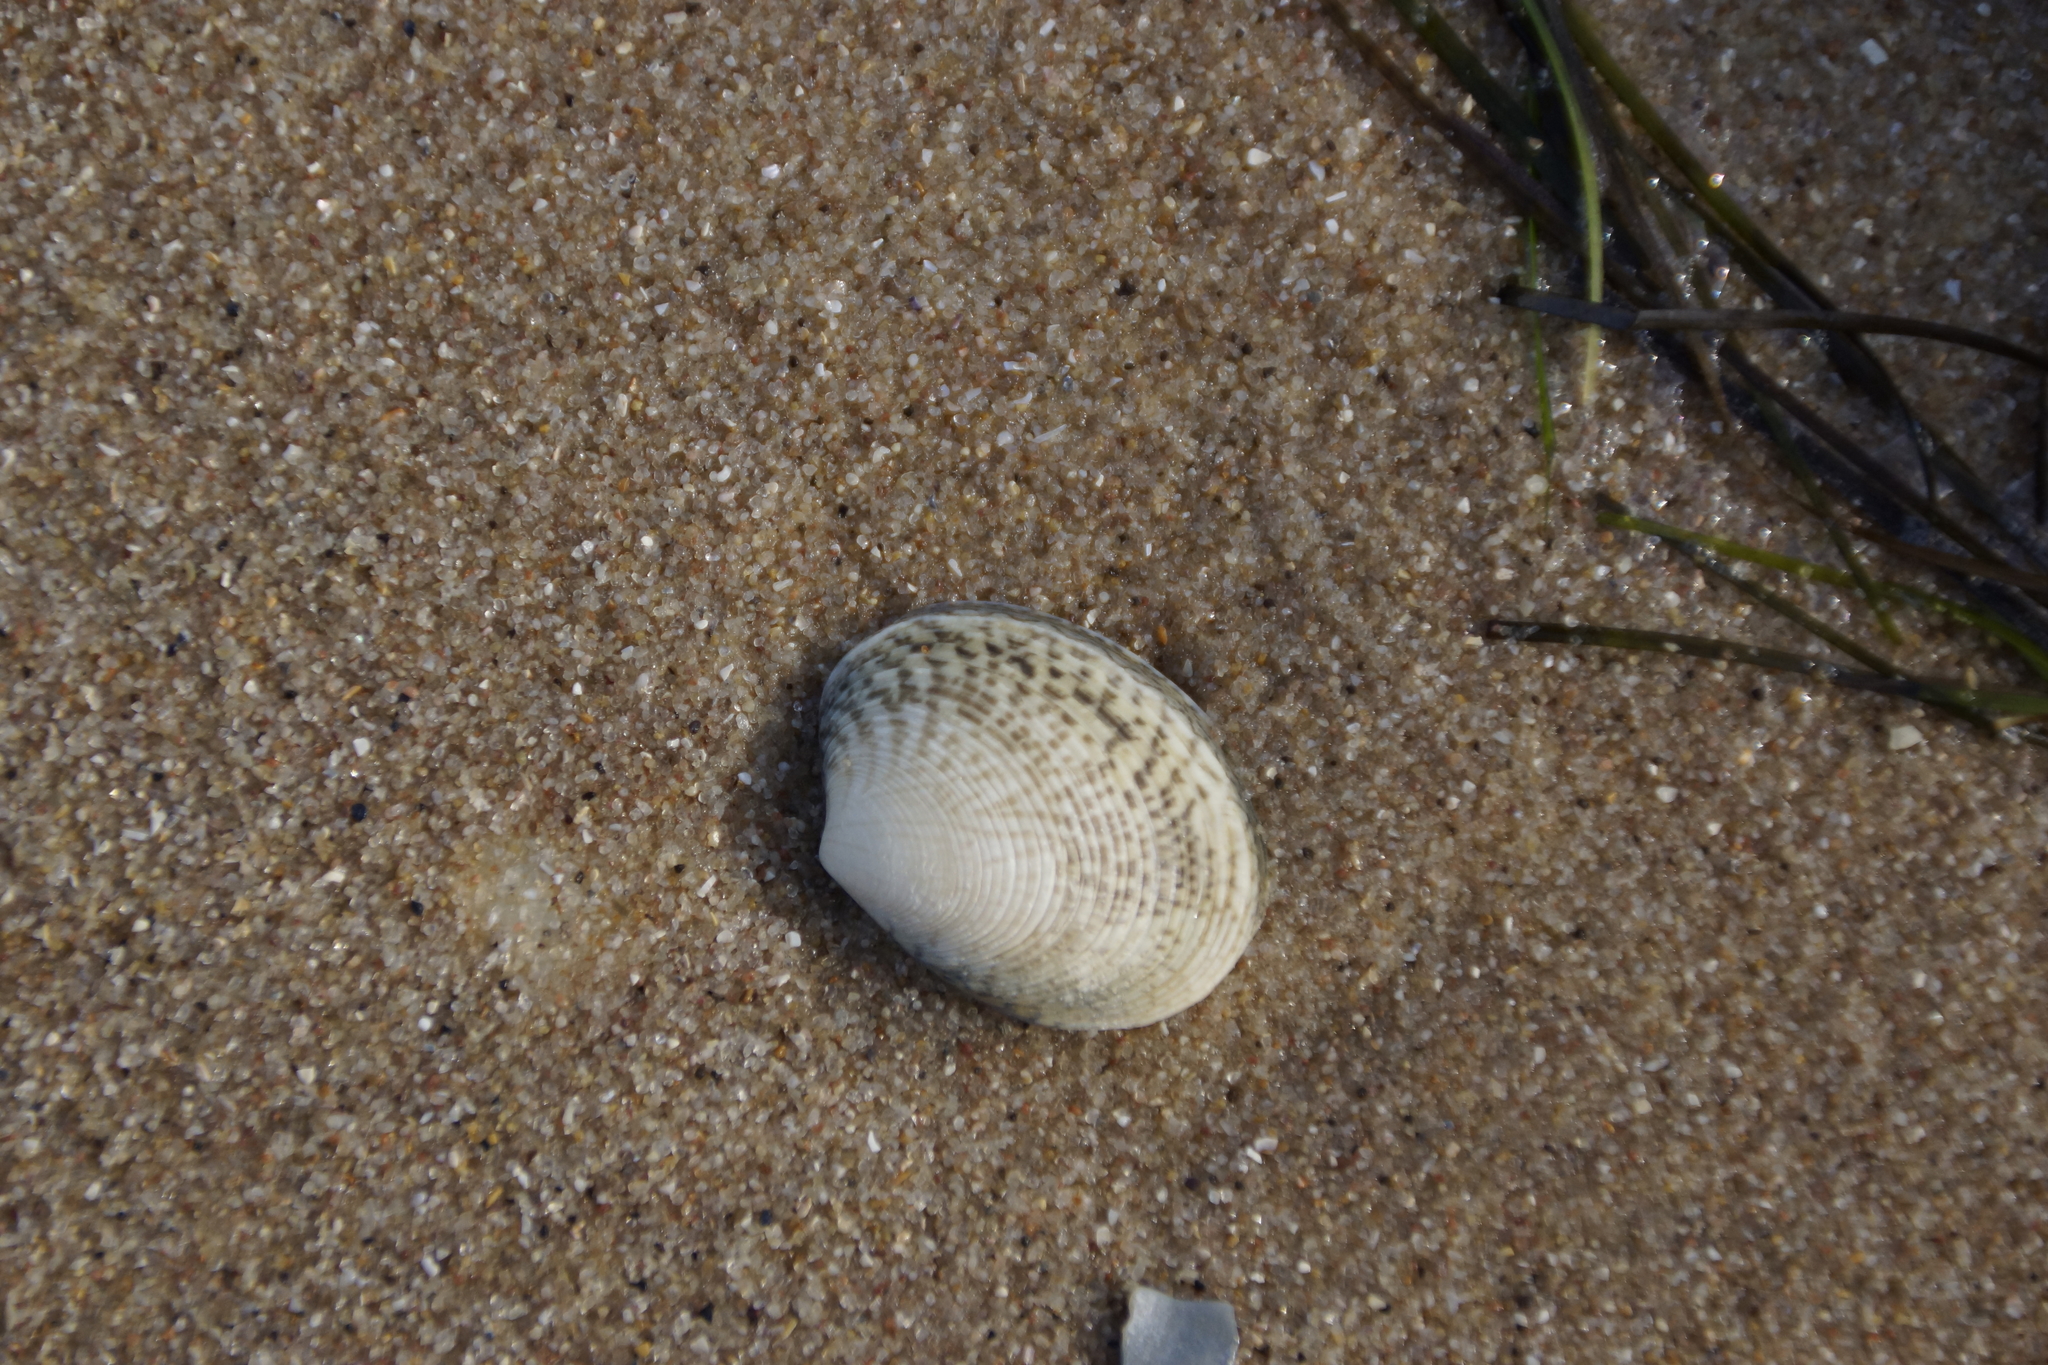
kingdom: Animalia
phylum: Mollusca
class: Bivalvia
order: Venerida
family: Veneridae
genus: Katelysia
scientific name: Katelysia rhytiphora
